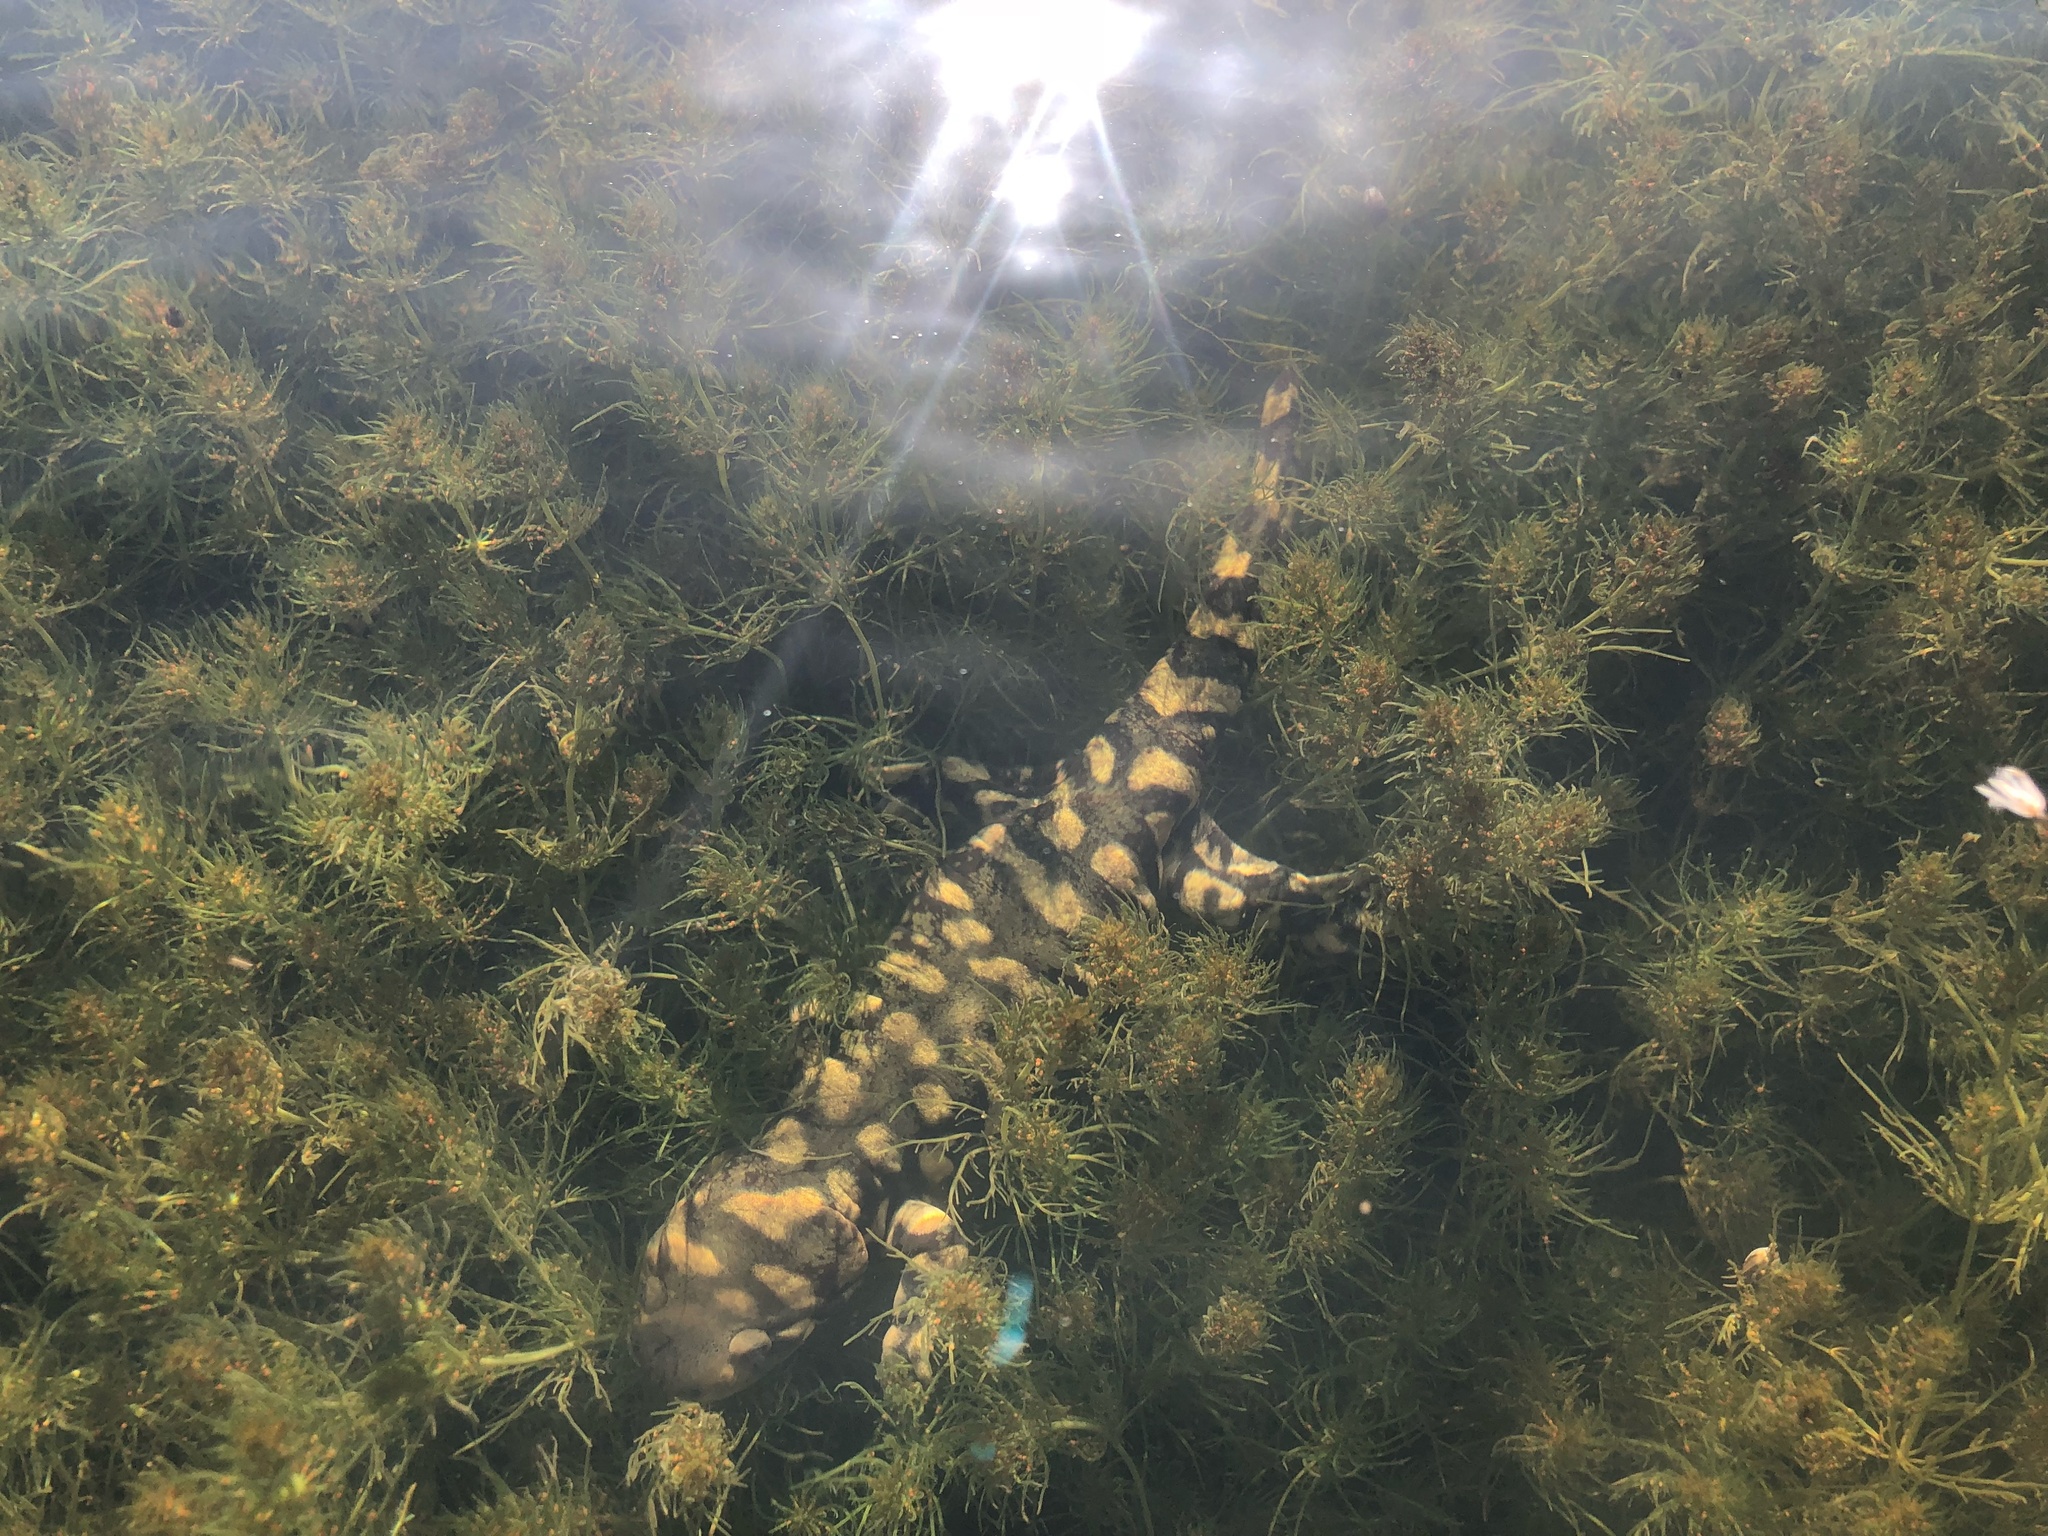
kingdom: Animalia
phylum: Chordata
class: Amphibia
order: Caudata
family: Ambystomatidae
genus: Ambystoma
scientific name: Ambystoma mavortium
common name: Western tiger salamander
